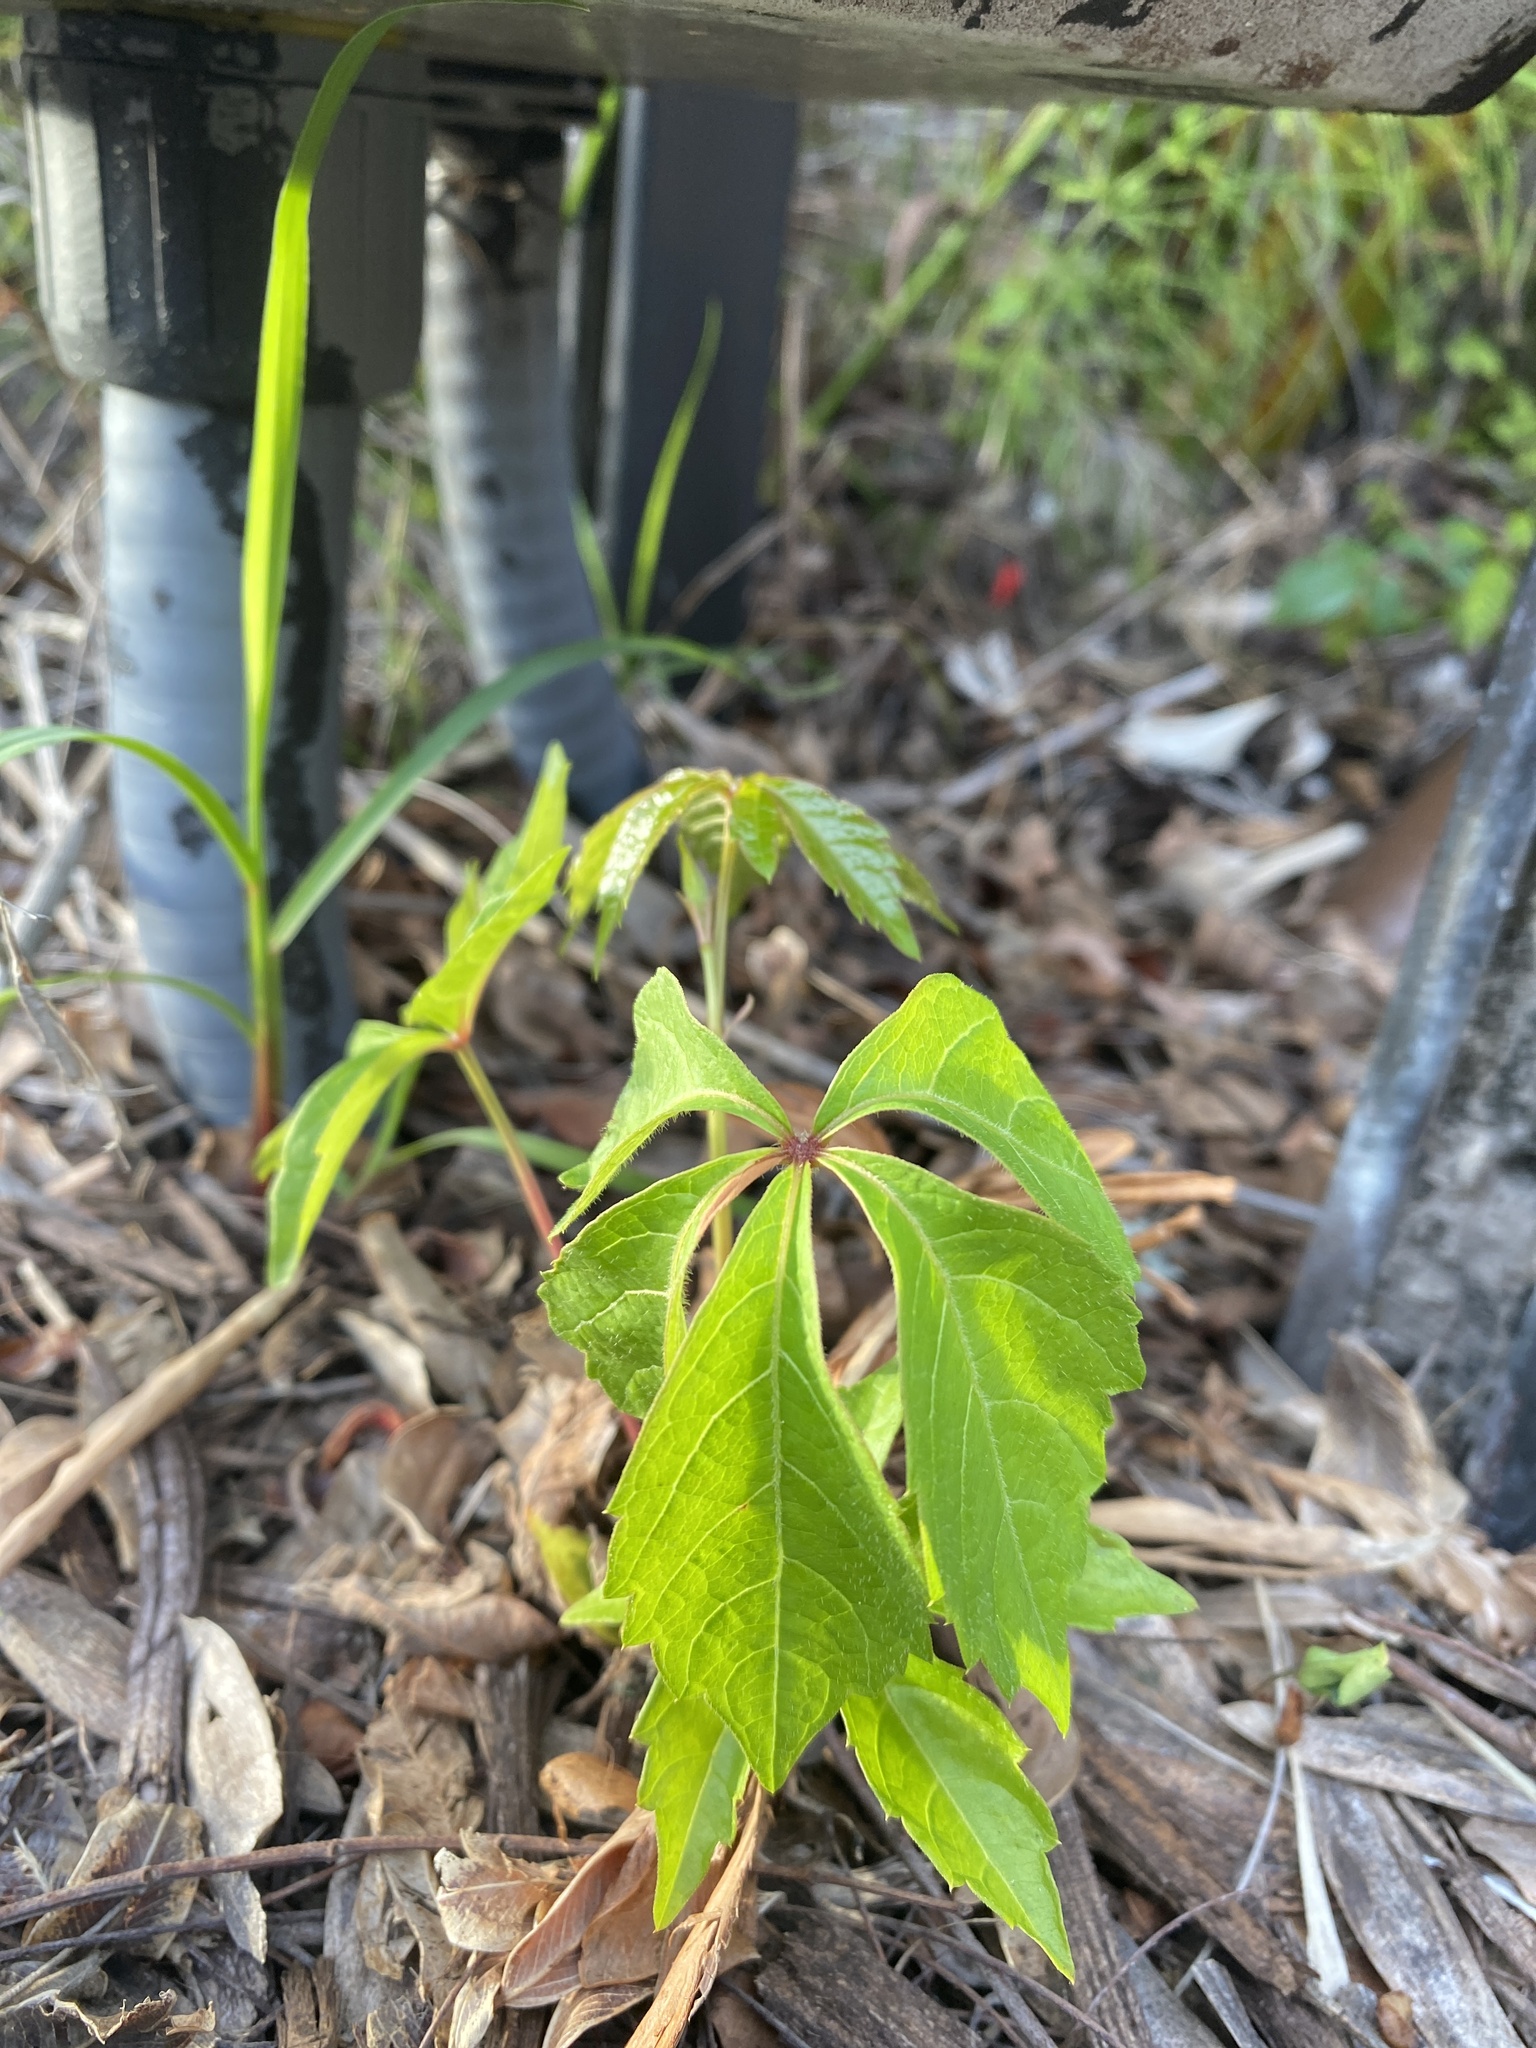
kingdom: Plantae
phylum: Tracheophyta
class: Magnoliopsida
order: Vitales
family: Vitaceae
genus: Parthenocissus
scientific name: Parthenocissus quinquefolia
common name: Virginia-creeper
